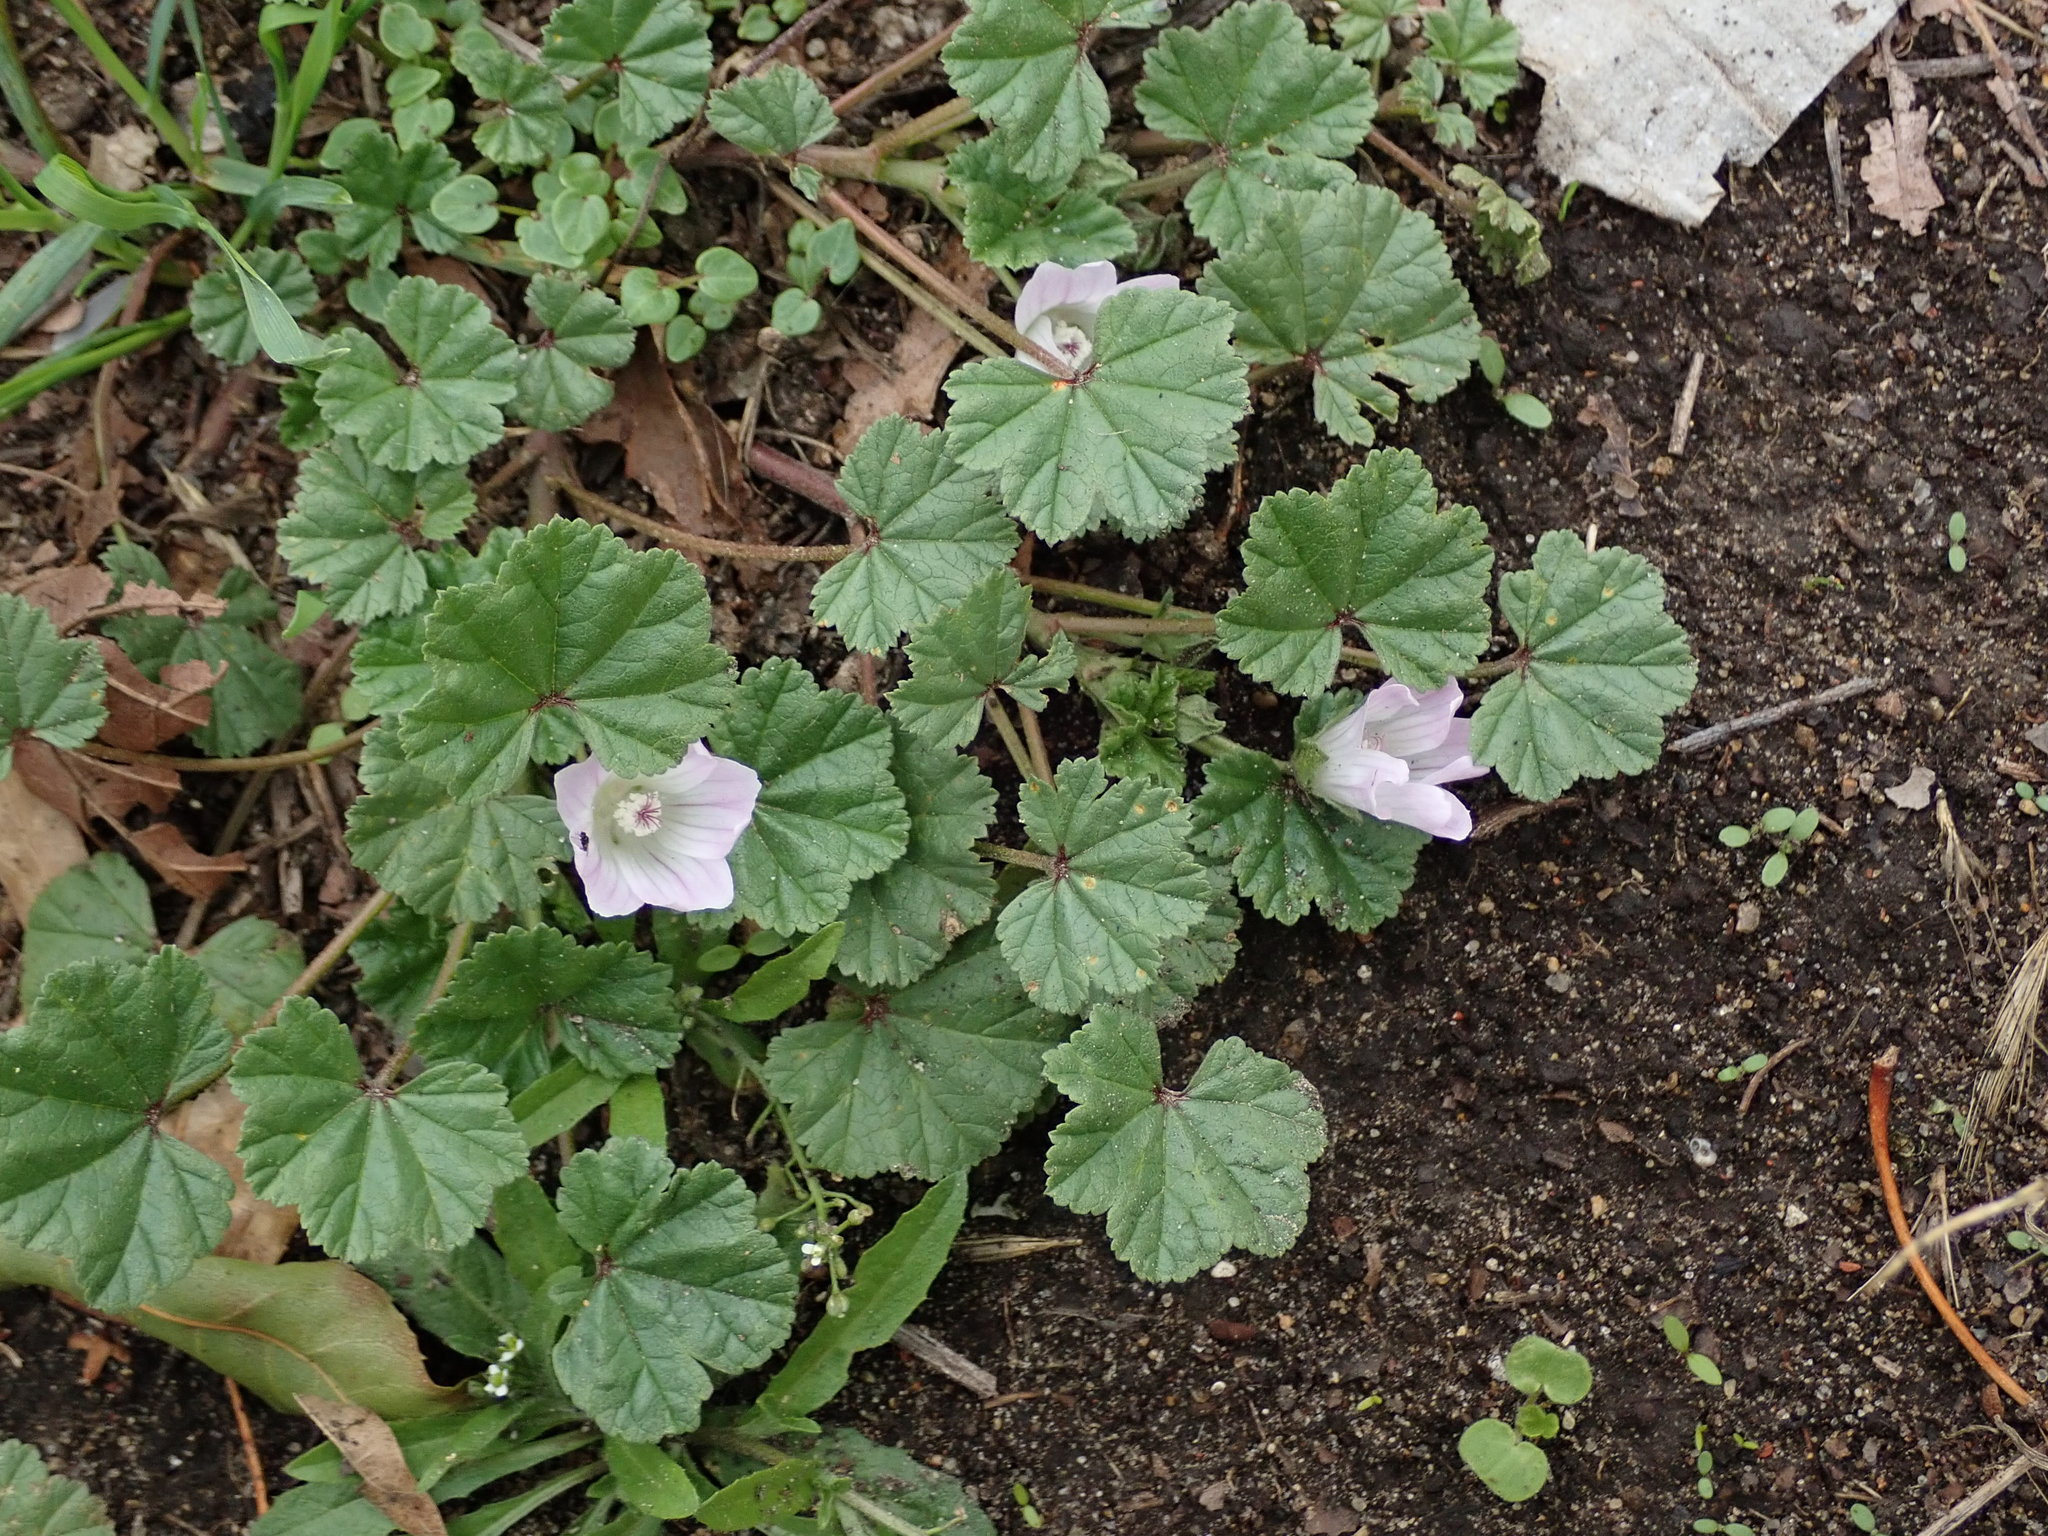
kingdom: Plantae
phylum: Tracheophyta
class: Magnoliopsida
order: Malvales
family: Malvaceae
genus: Malva
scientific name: Malva neglecta
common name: Common mallow
